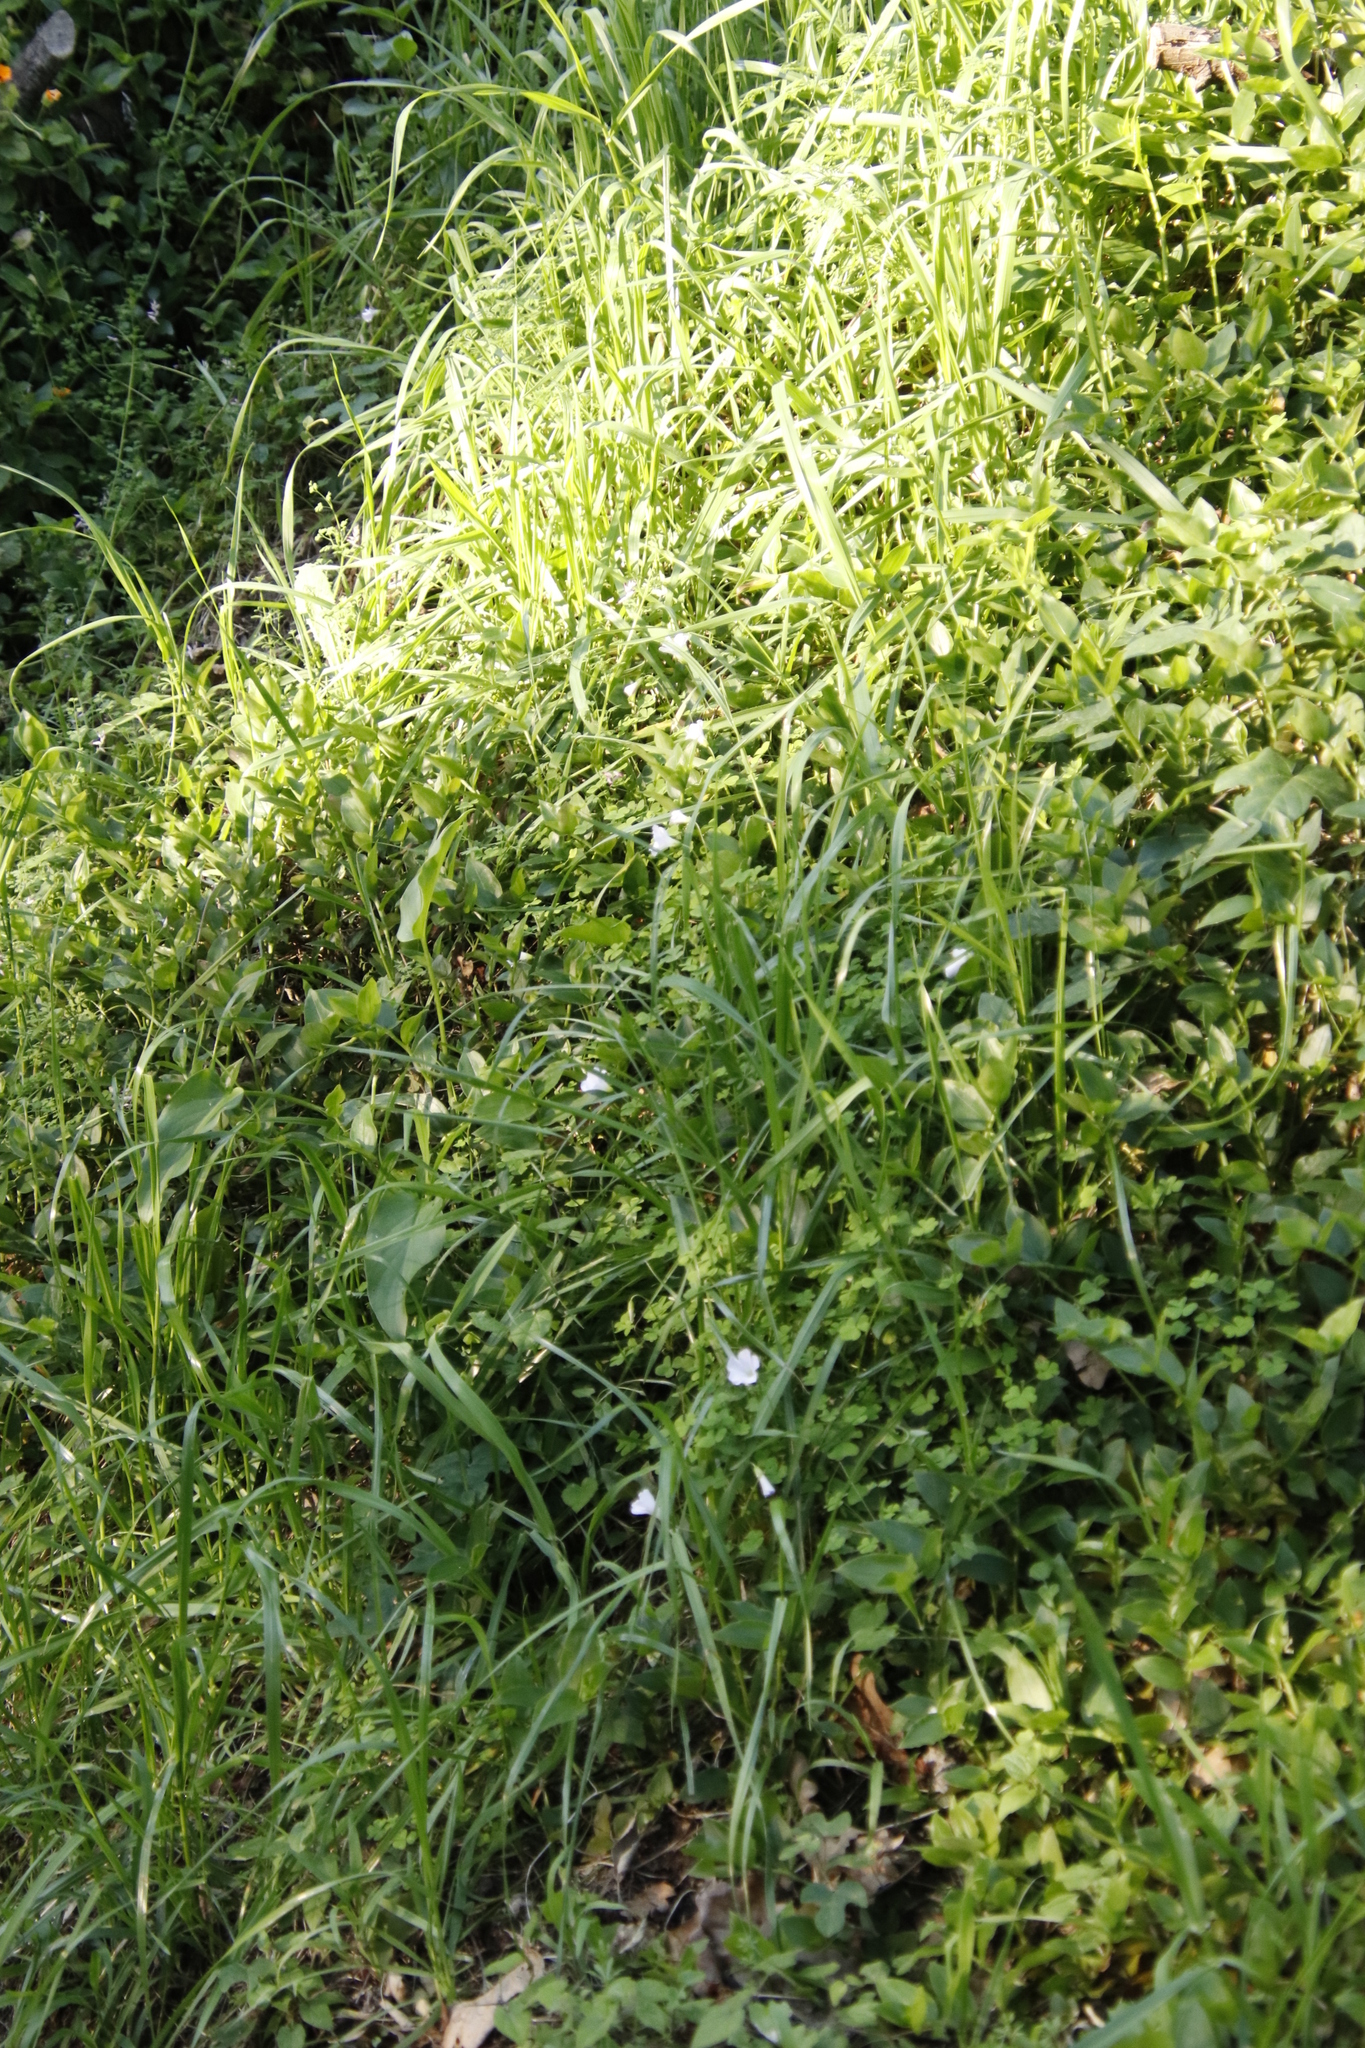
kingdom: Plantae
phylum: Tracheophyta
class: Magnoliopsida
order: Oxalidales
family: Oxalidaceae
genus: Oxalis
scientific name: Oxalis incarnata
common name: Pale pink-sorrel
